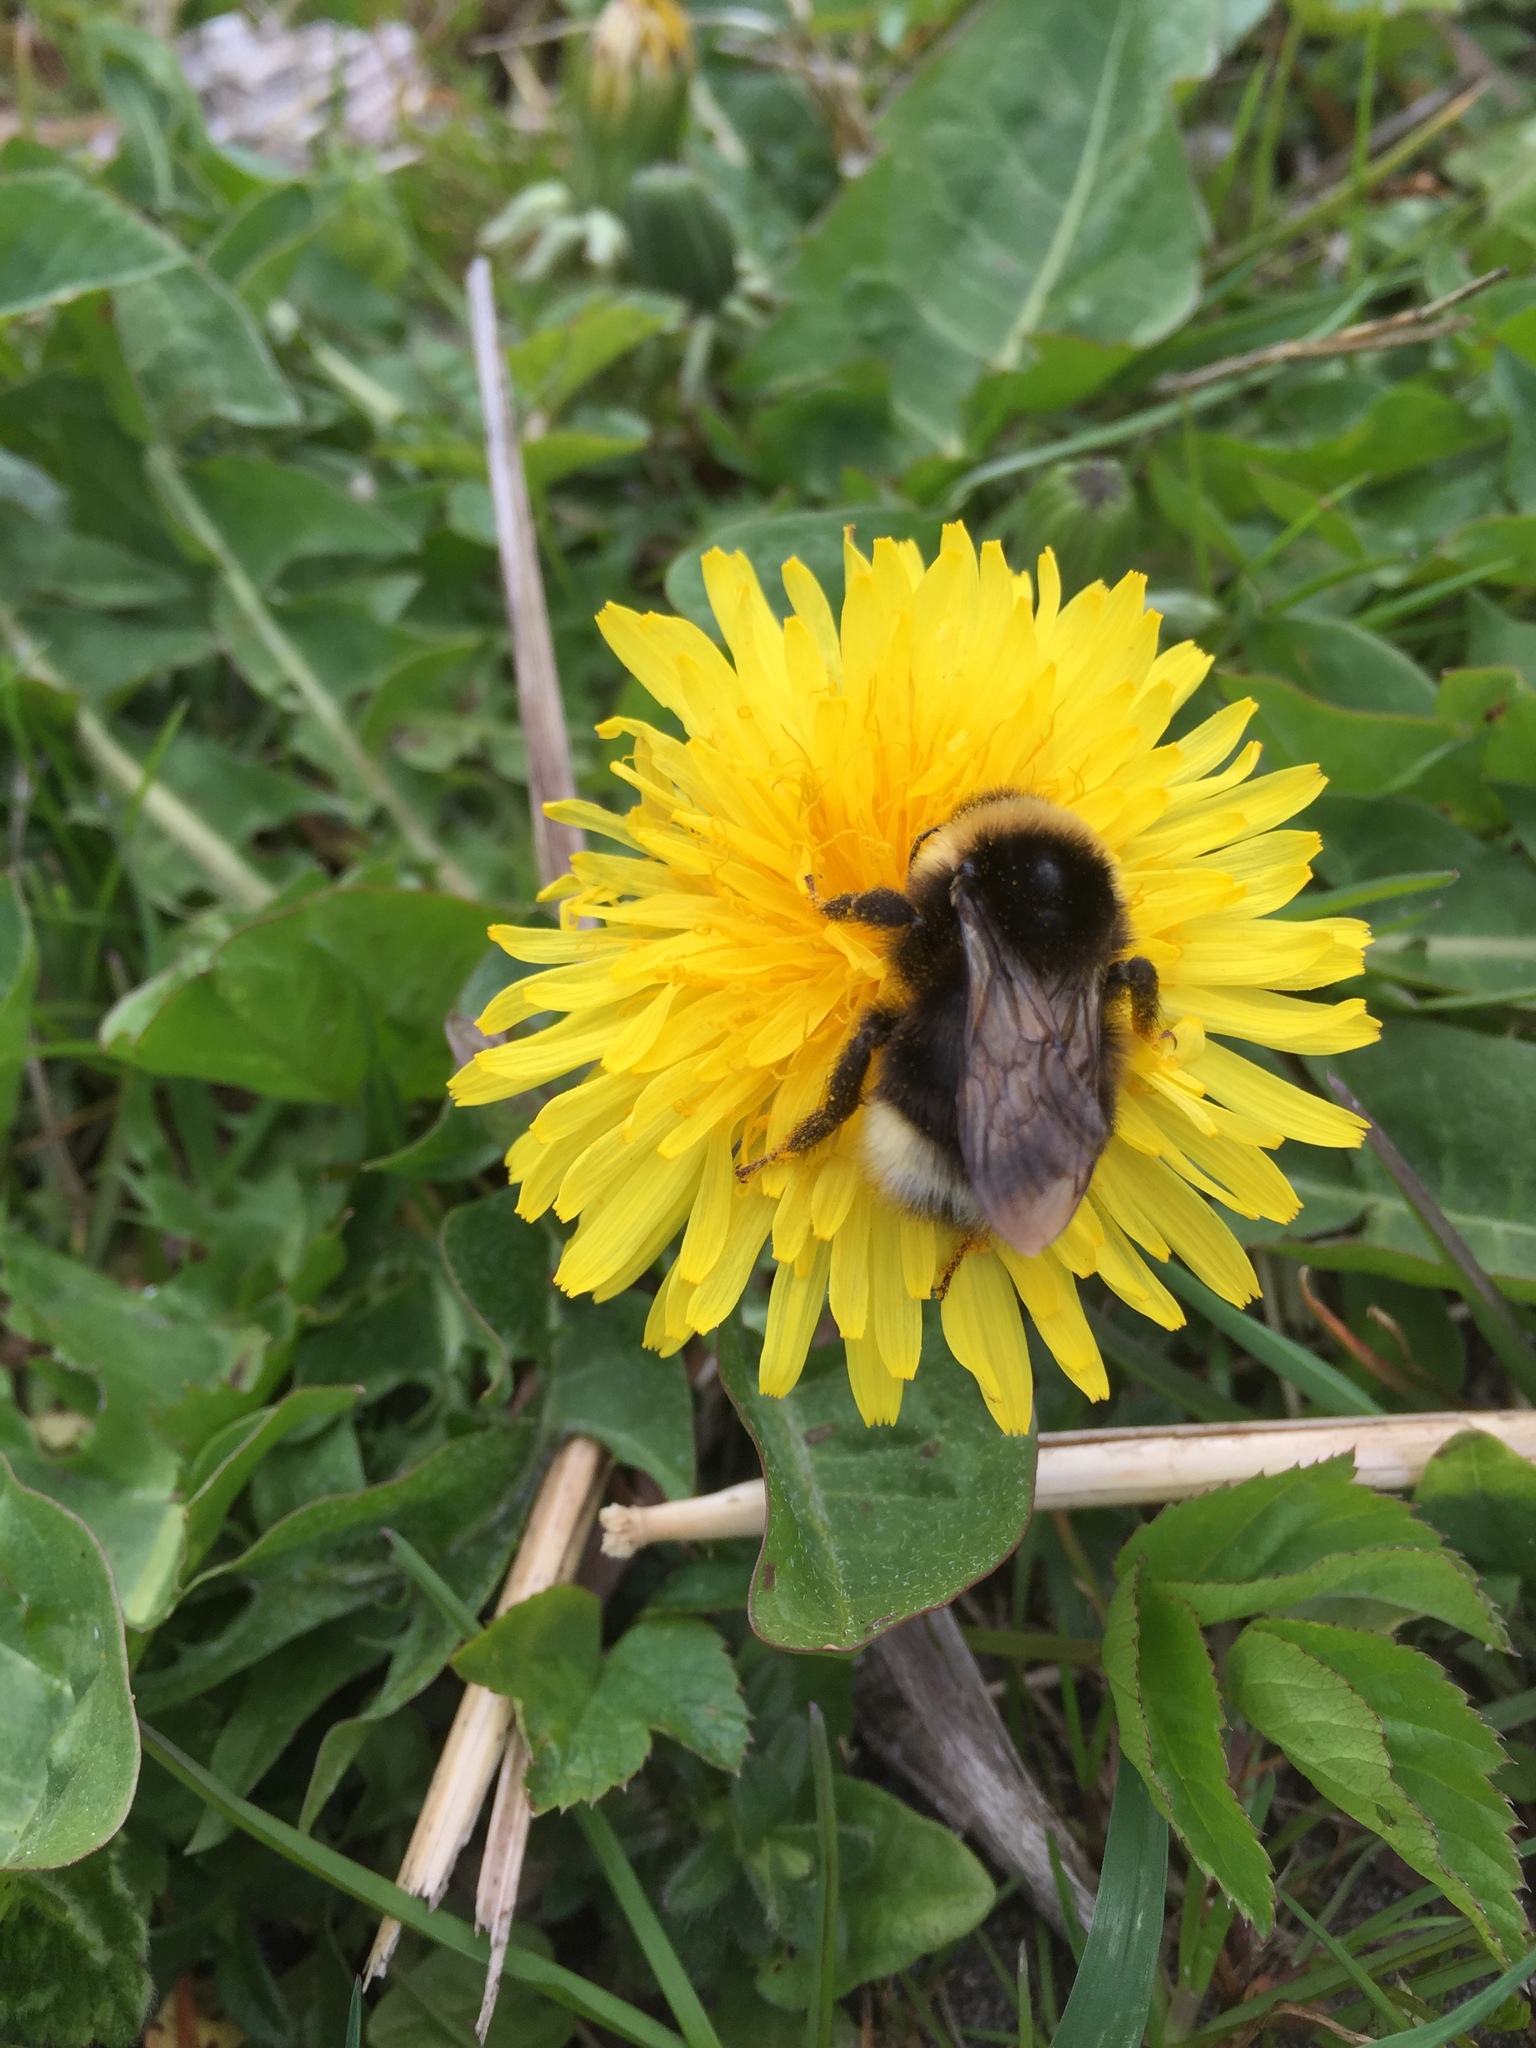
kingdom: Animalia
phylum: Arthropoda
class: Insecta
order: Hymenoptera
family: Apidae
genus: Bombus
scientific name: Bombus bohemicus
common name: Gypsy cuckoo bee
